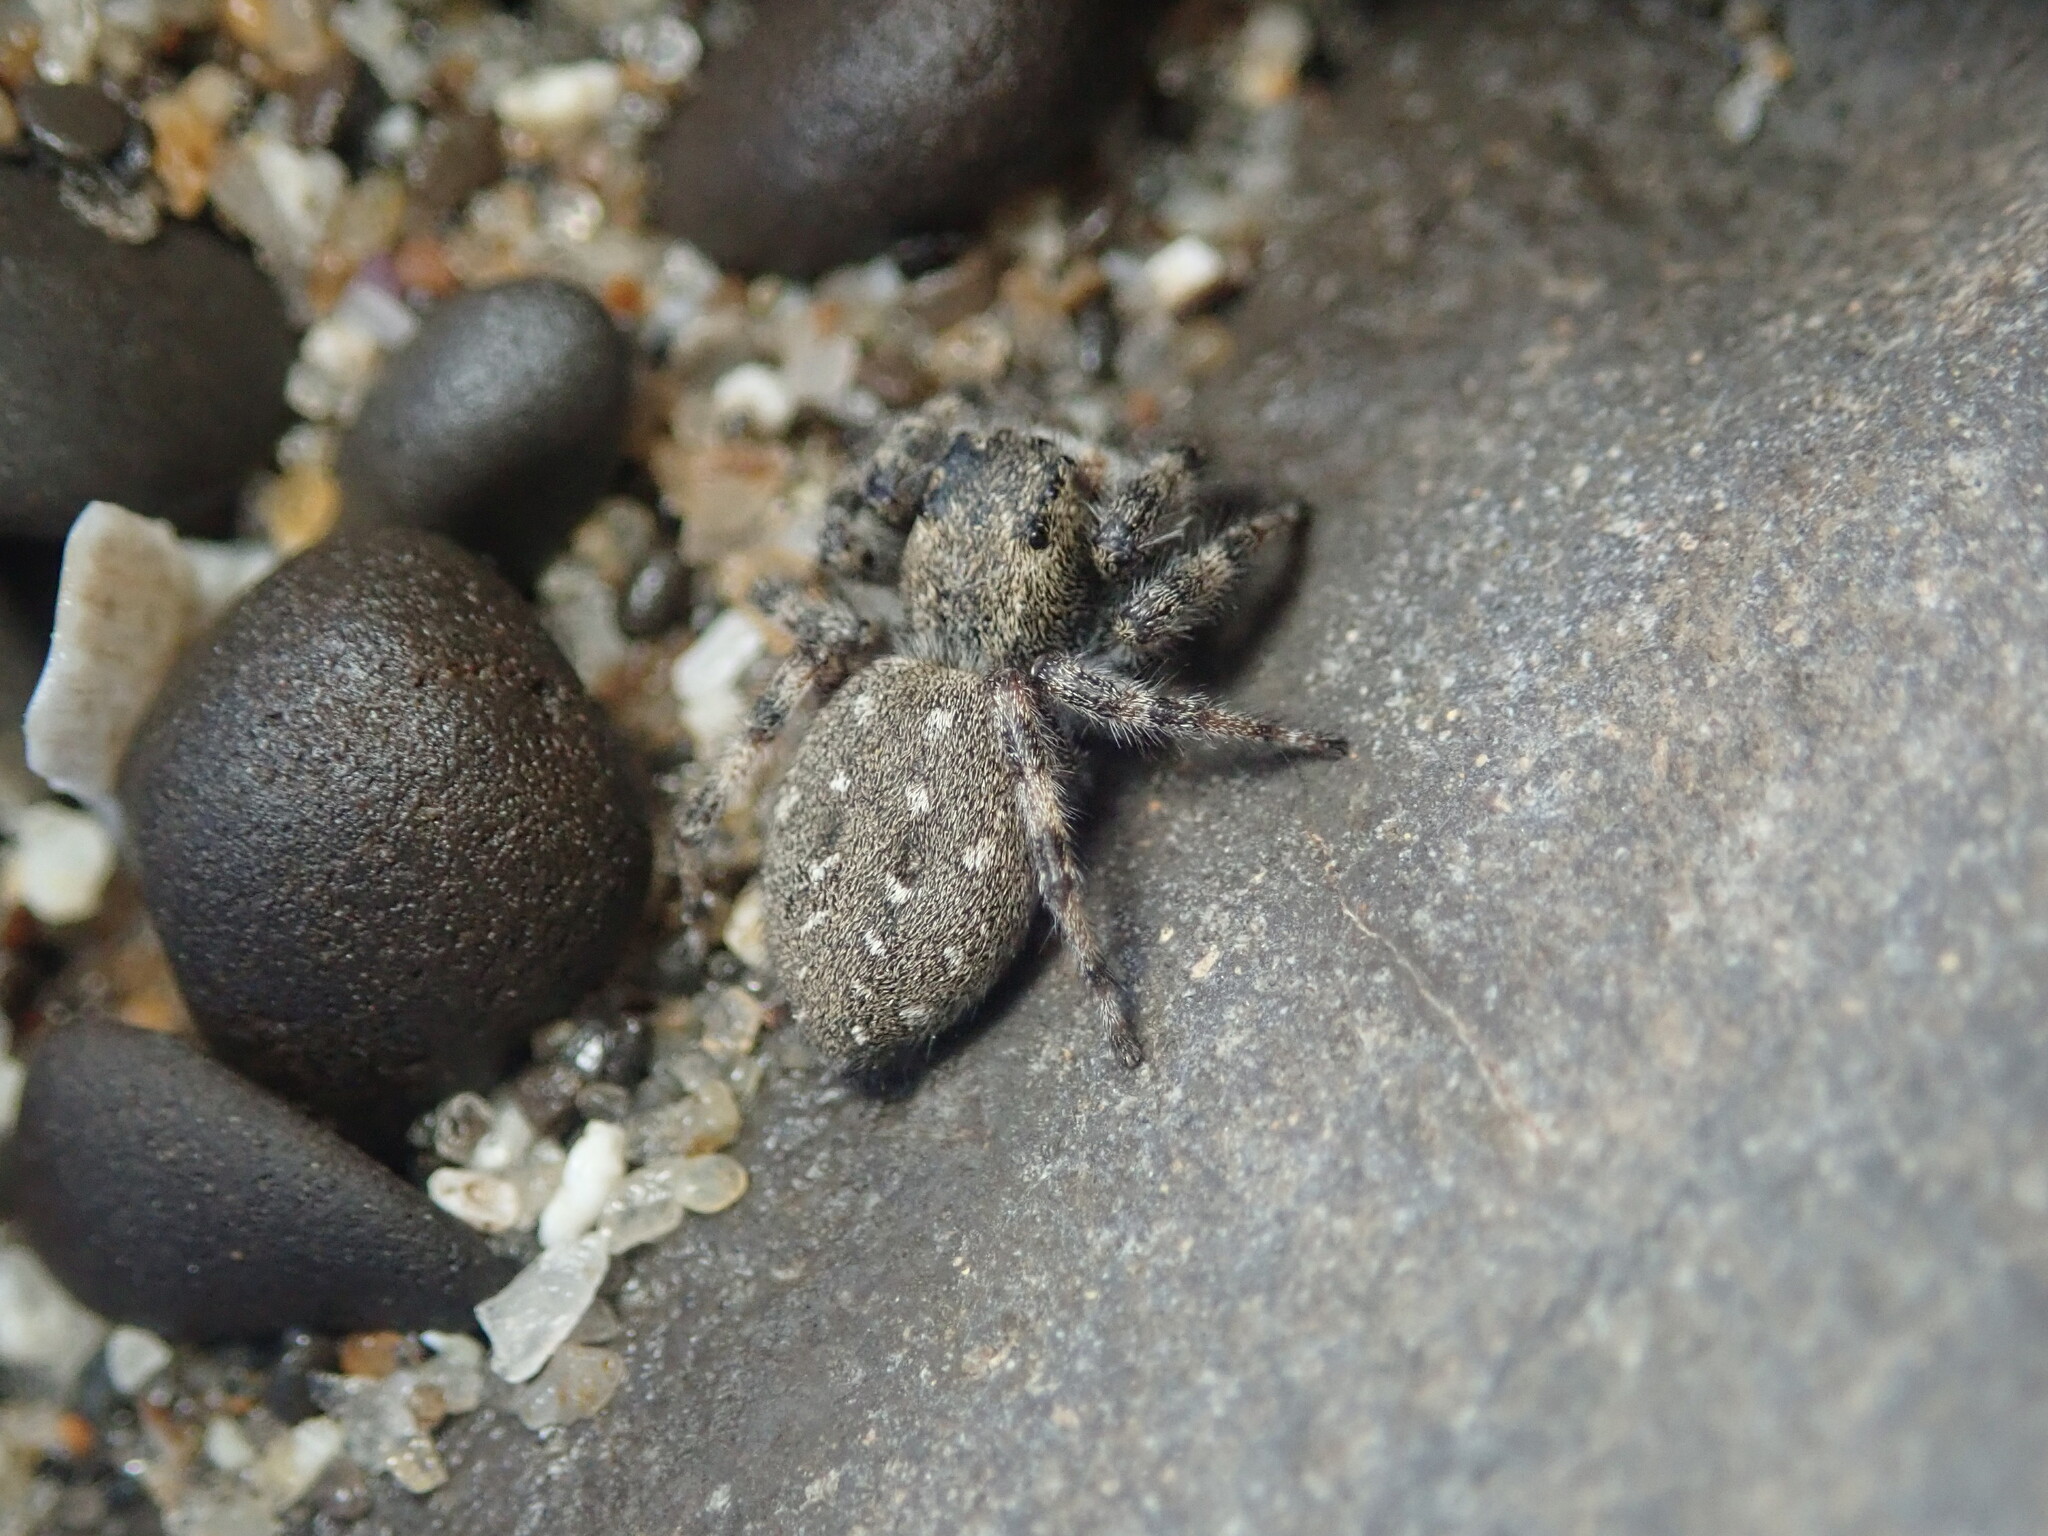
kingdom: Animalia
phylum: Arthropoda
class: Arachnida
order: Araneae
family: Salticidae
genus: Terralonus
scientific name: Terralonus californicus
